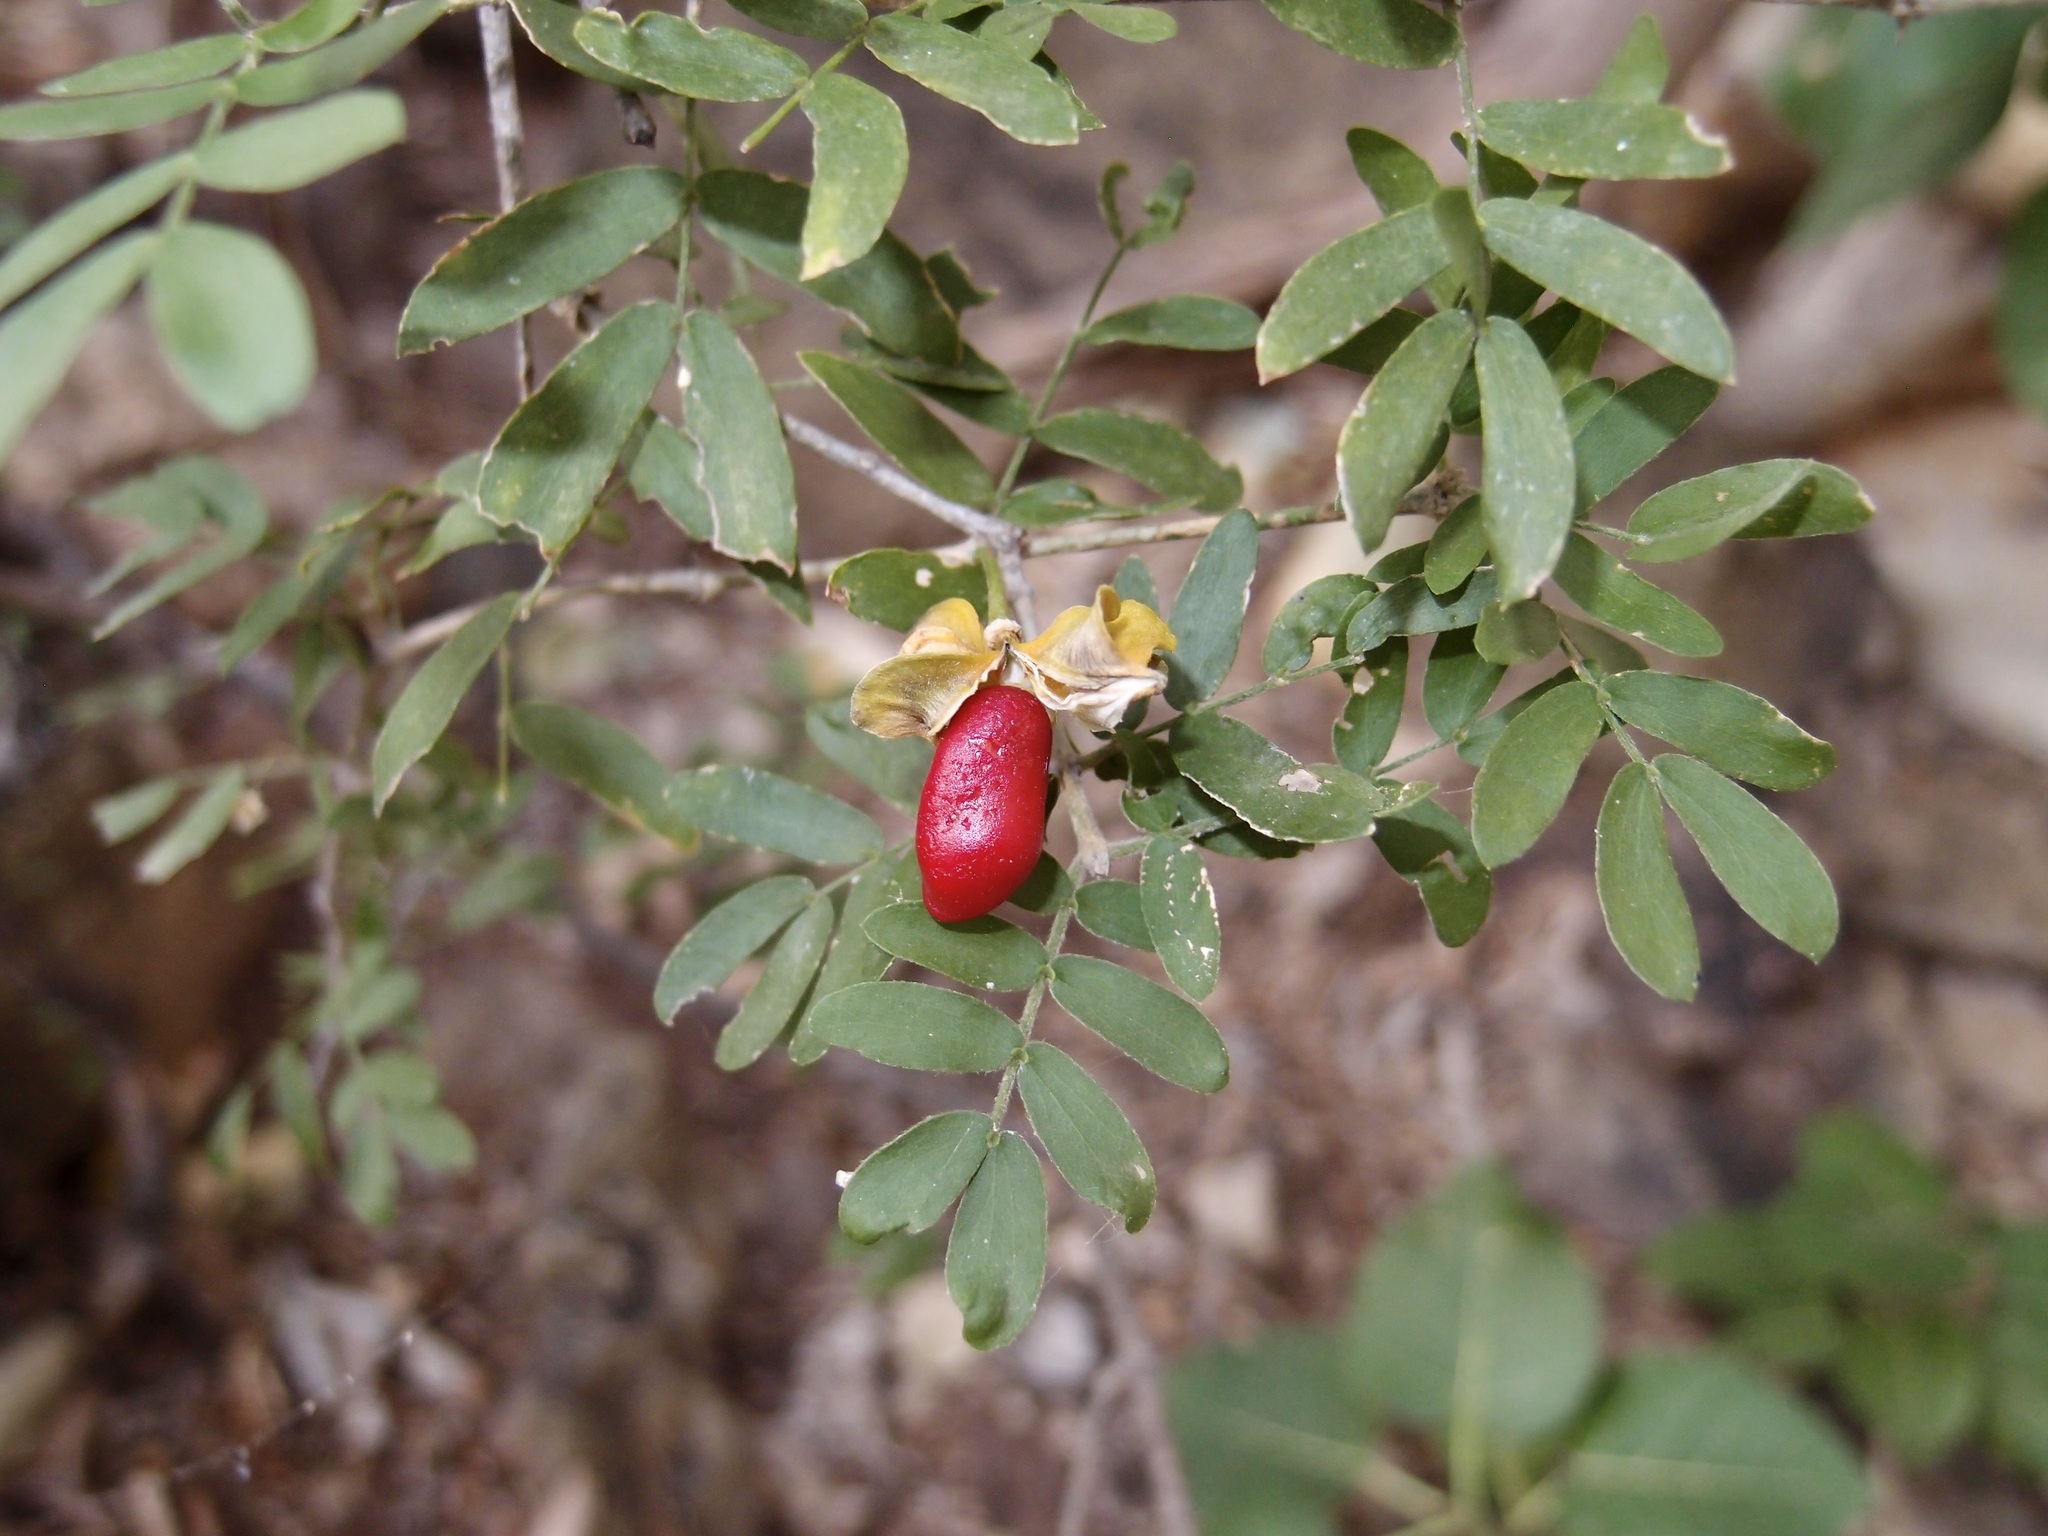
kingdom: Plantae
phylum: Tracheophyta
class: Magnoliopsida
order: Zygophyllales
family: Zygophyllaceae
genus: Guaiacum
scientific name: Guaiacum coulteri
